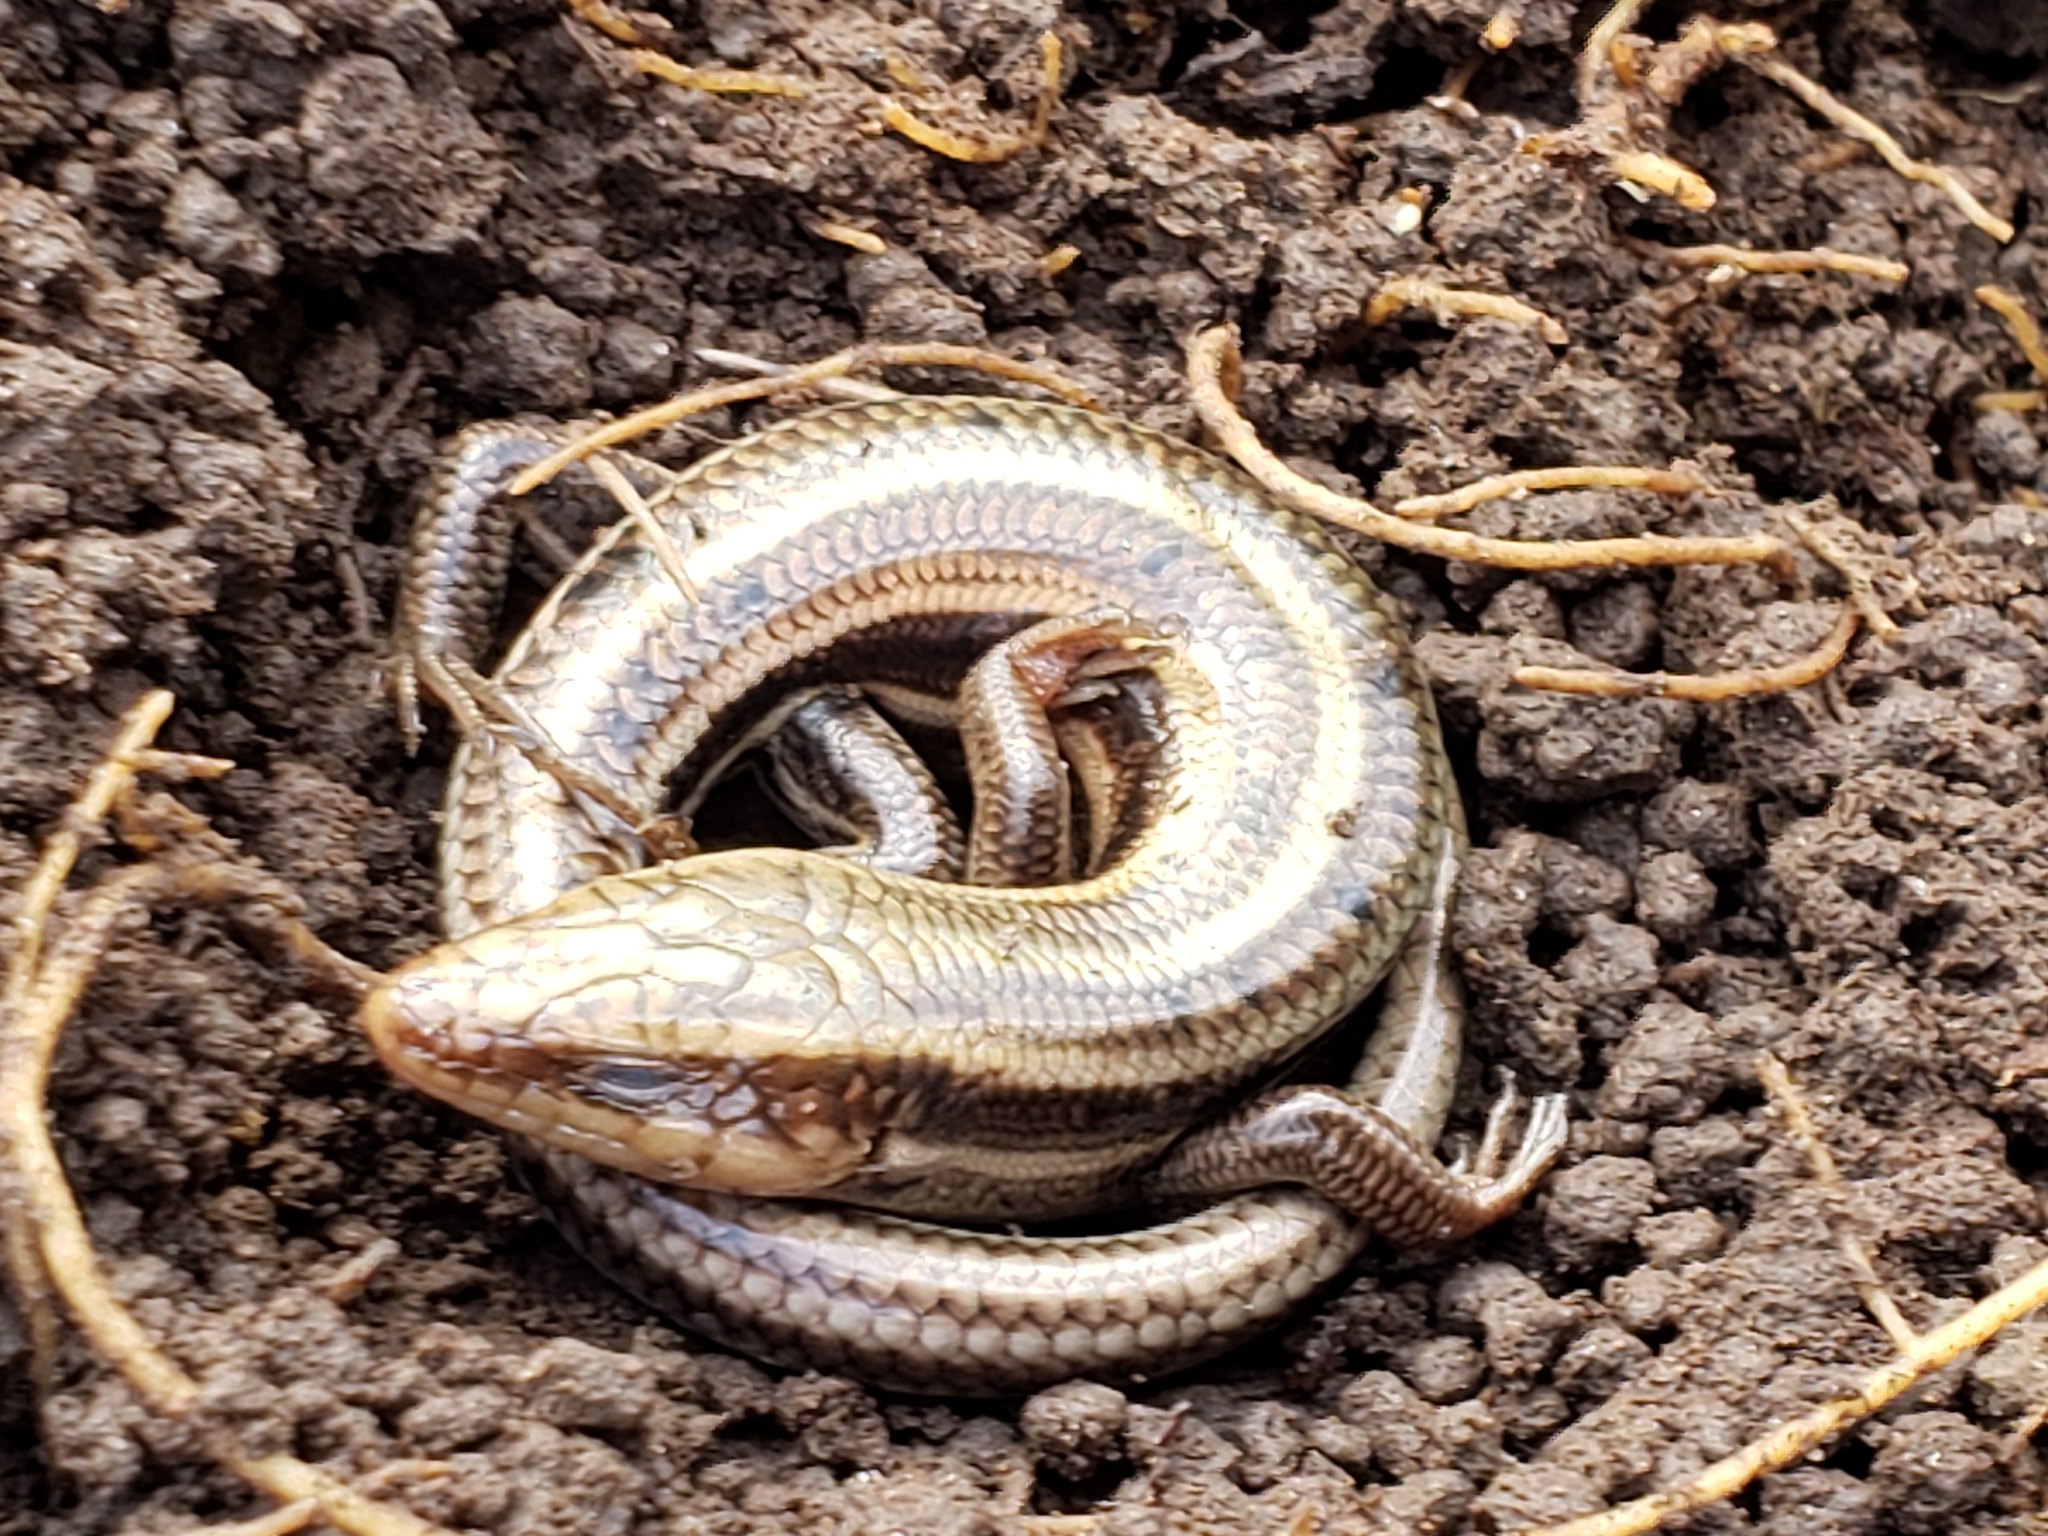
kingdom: Animalia
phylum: Chordata
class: Squamata
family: Scincidae
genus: Plestiodon
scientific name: Plestiodon fasciatus
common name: Five-lined skink
